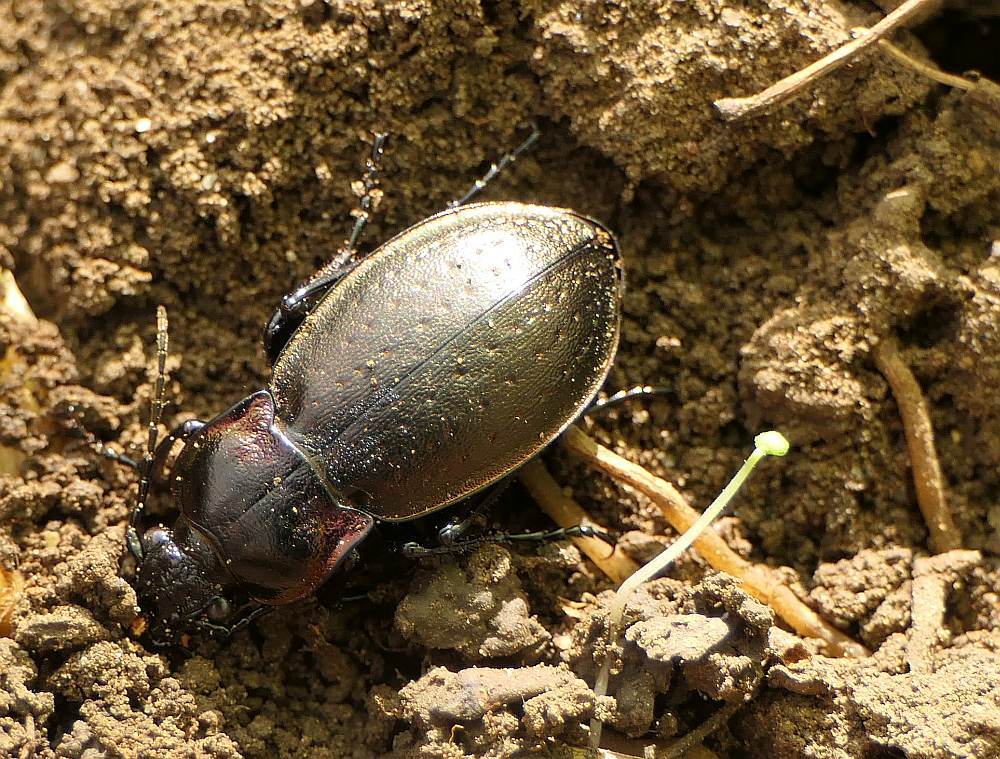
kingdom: Animalia
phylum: Arthropoda
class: Insecta
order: Coleoptera
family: Carabidae
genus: Carabus
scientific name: Carabus nemoralis
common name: European ground beetle
